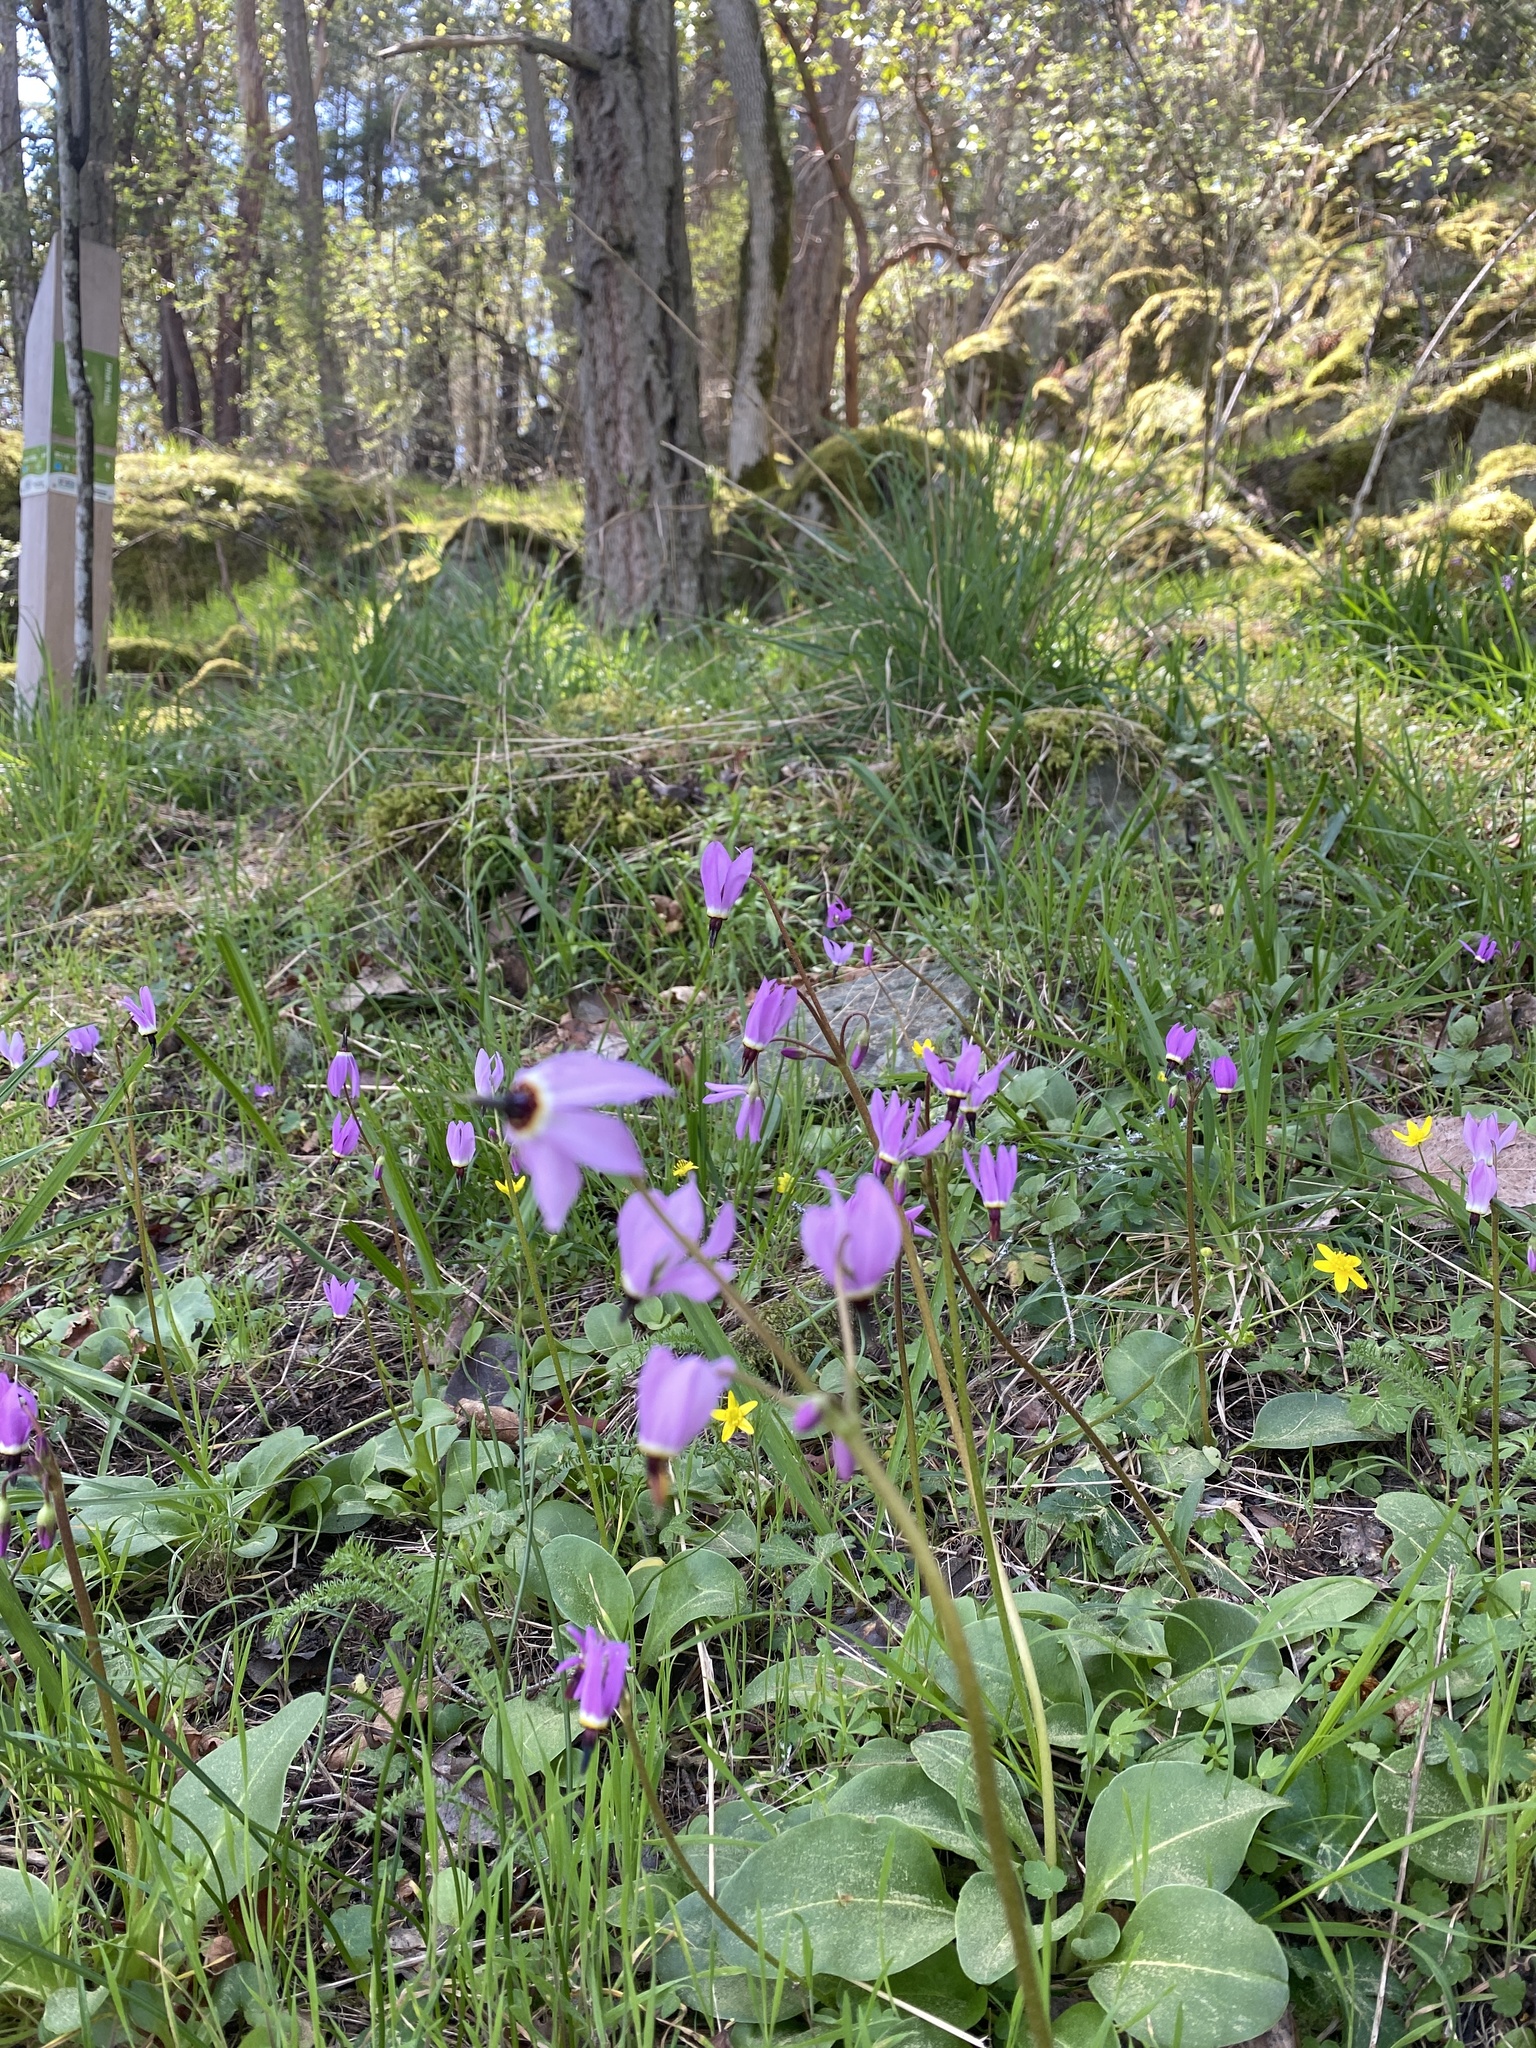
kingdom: Plantae
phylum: Tracheophyta
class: Magnoliopsida
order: Ericales
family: Primulaceae
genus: Dodecatheon
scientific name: Dodecatheon hendersonii
